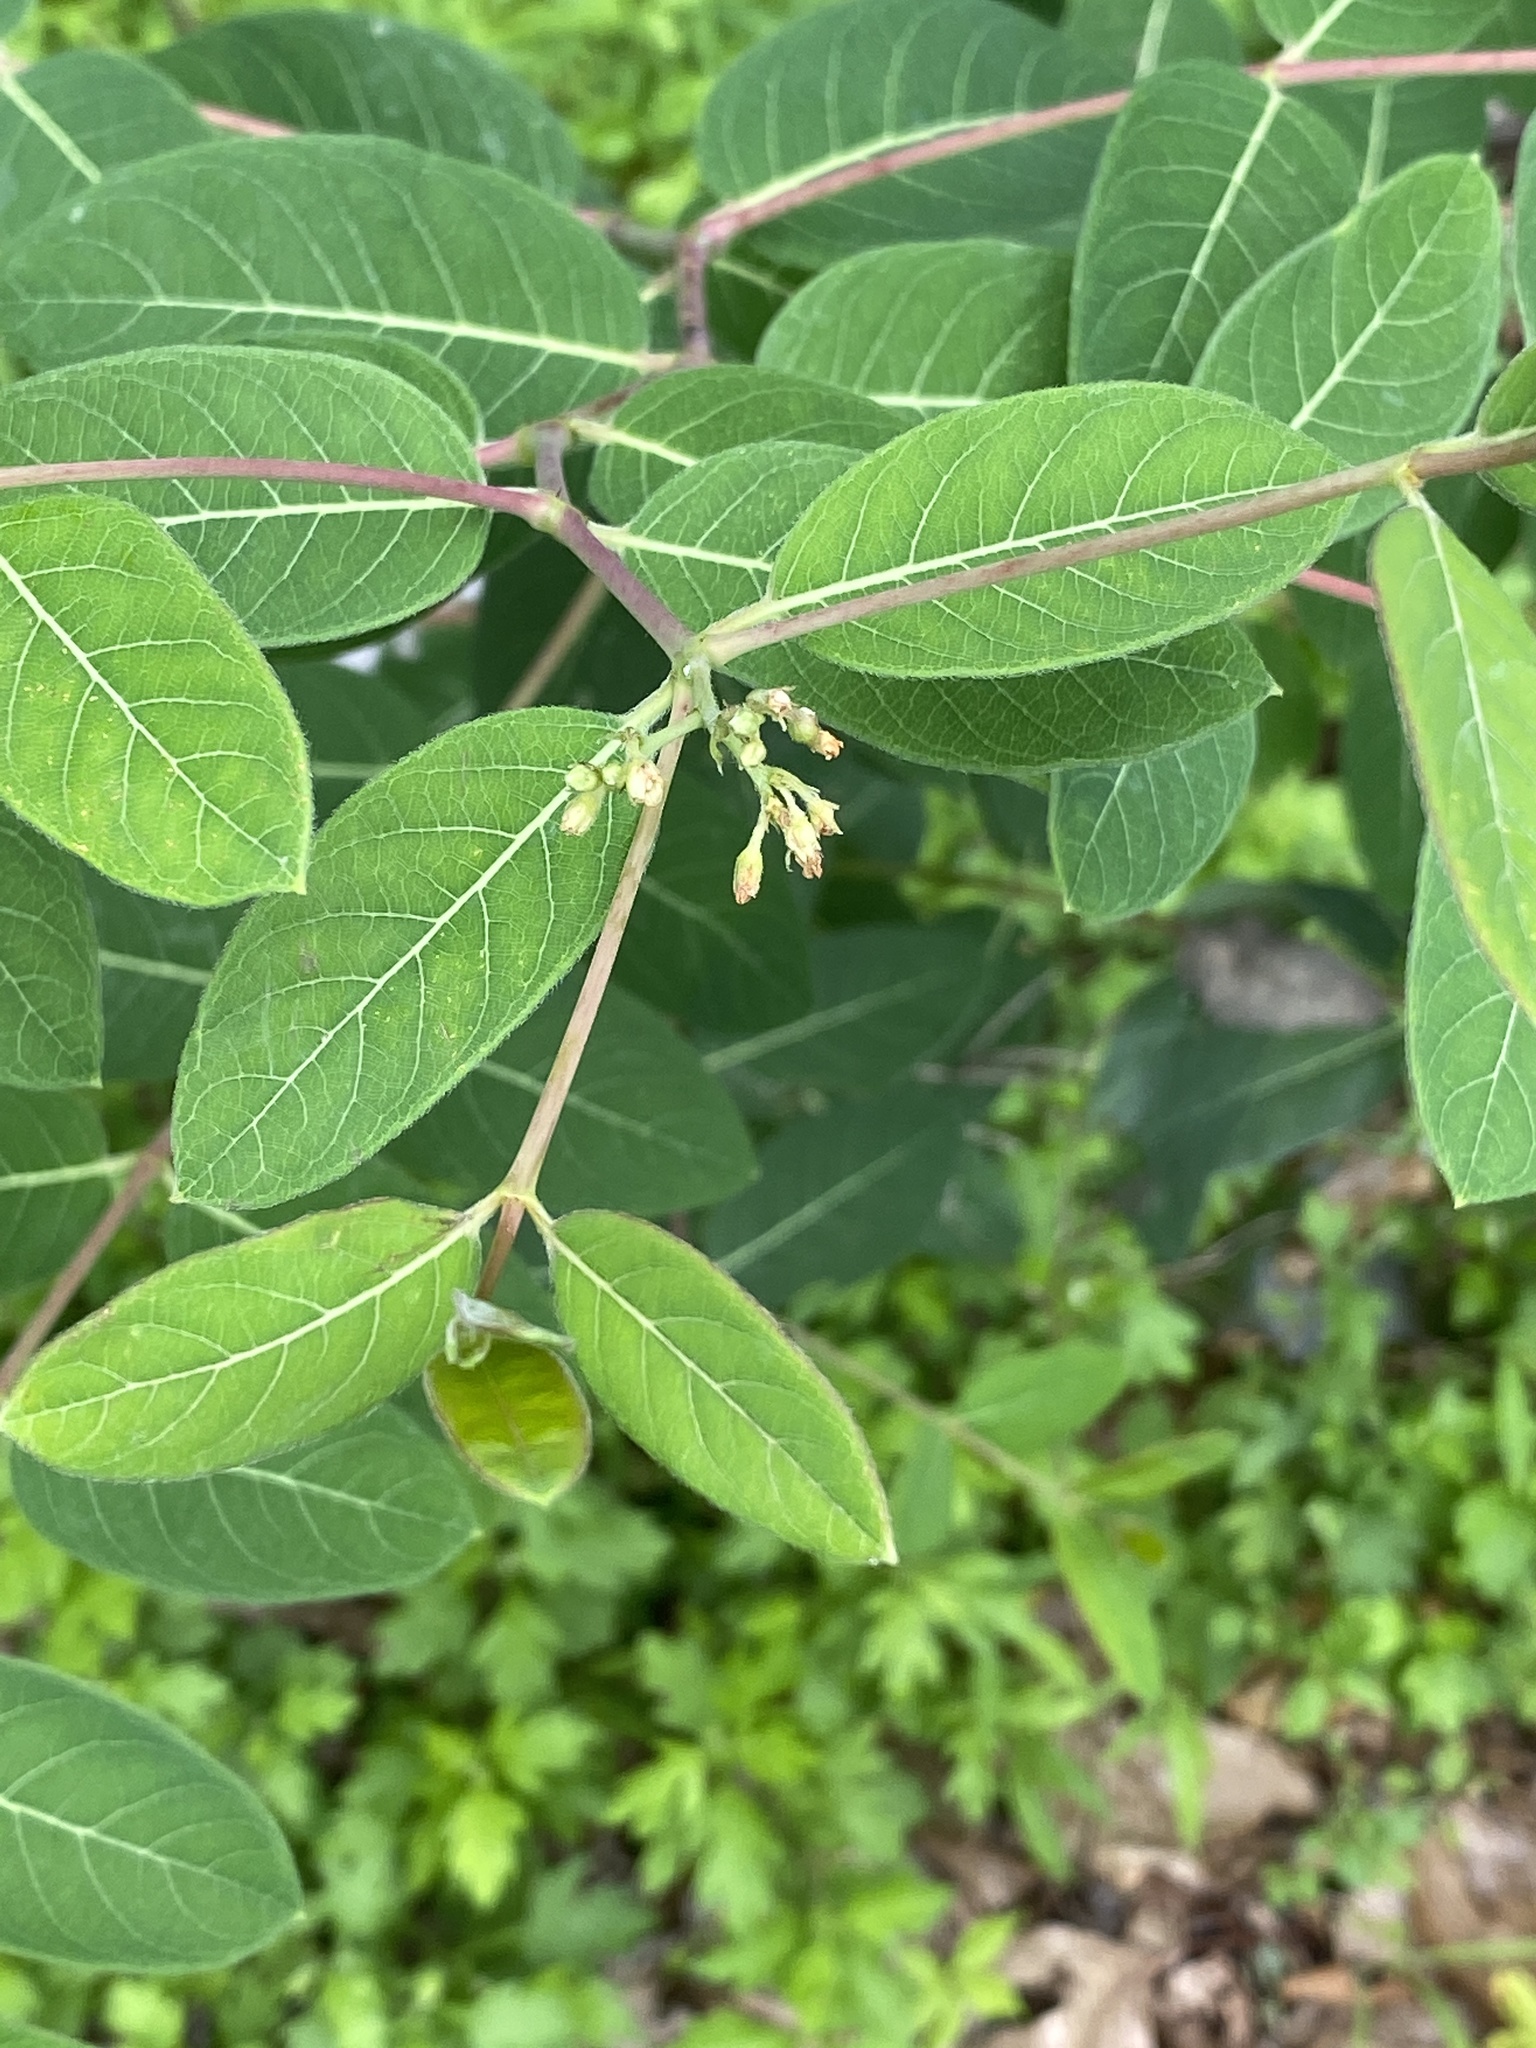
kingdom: Plantae
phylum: Tracheophyta
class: Magnoliopsida
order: Gentianales
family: Apocynaceae
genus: Apocynum
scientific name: Apocynum cannabinum
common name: Hemp dogbane
